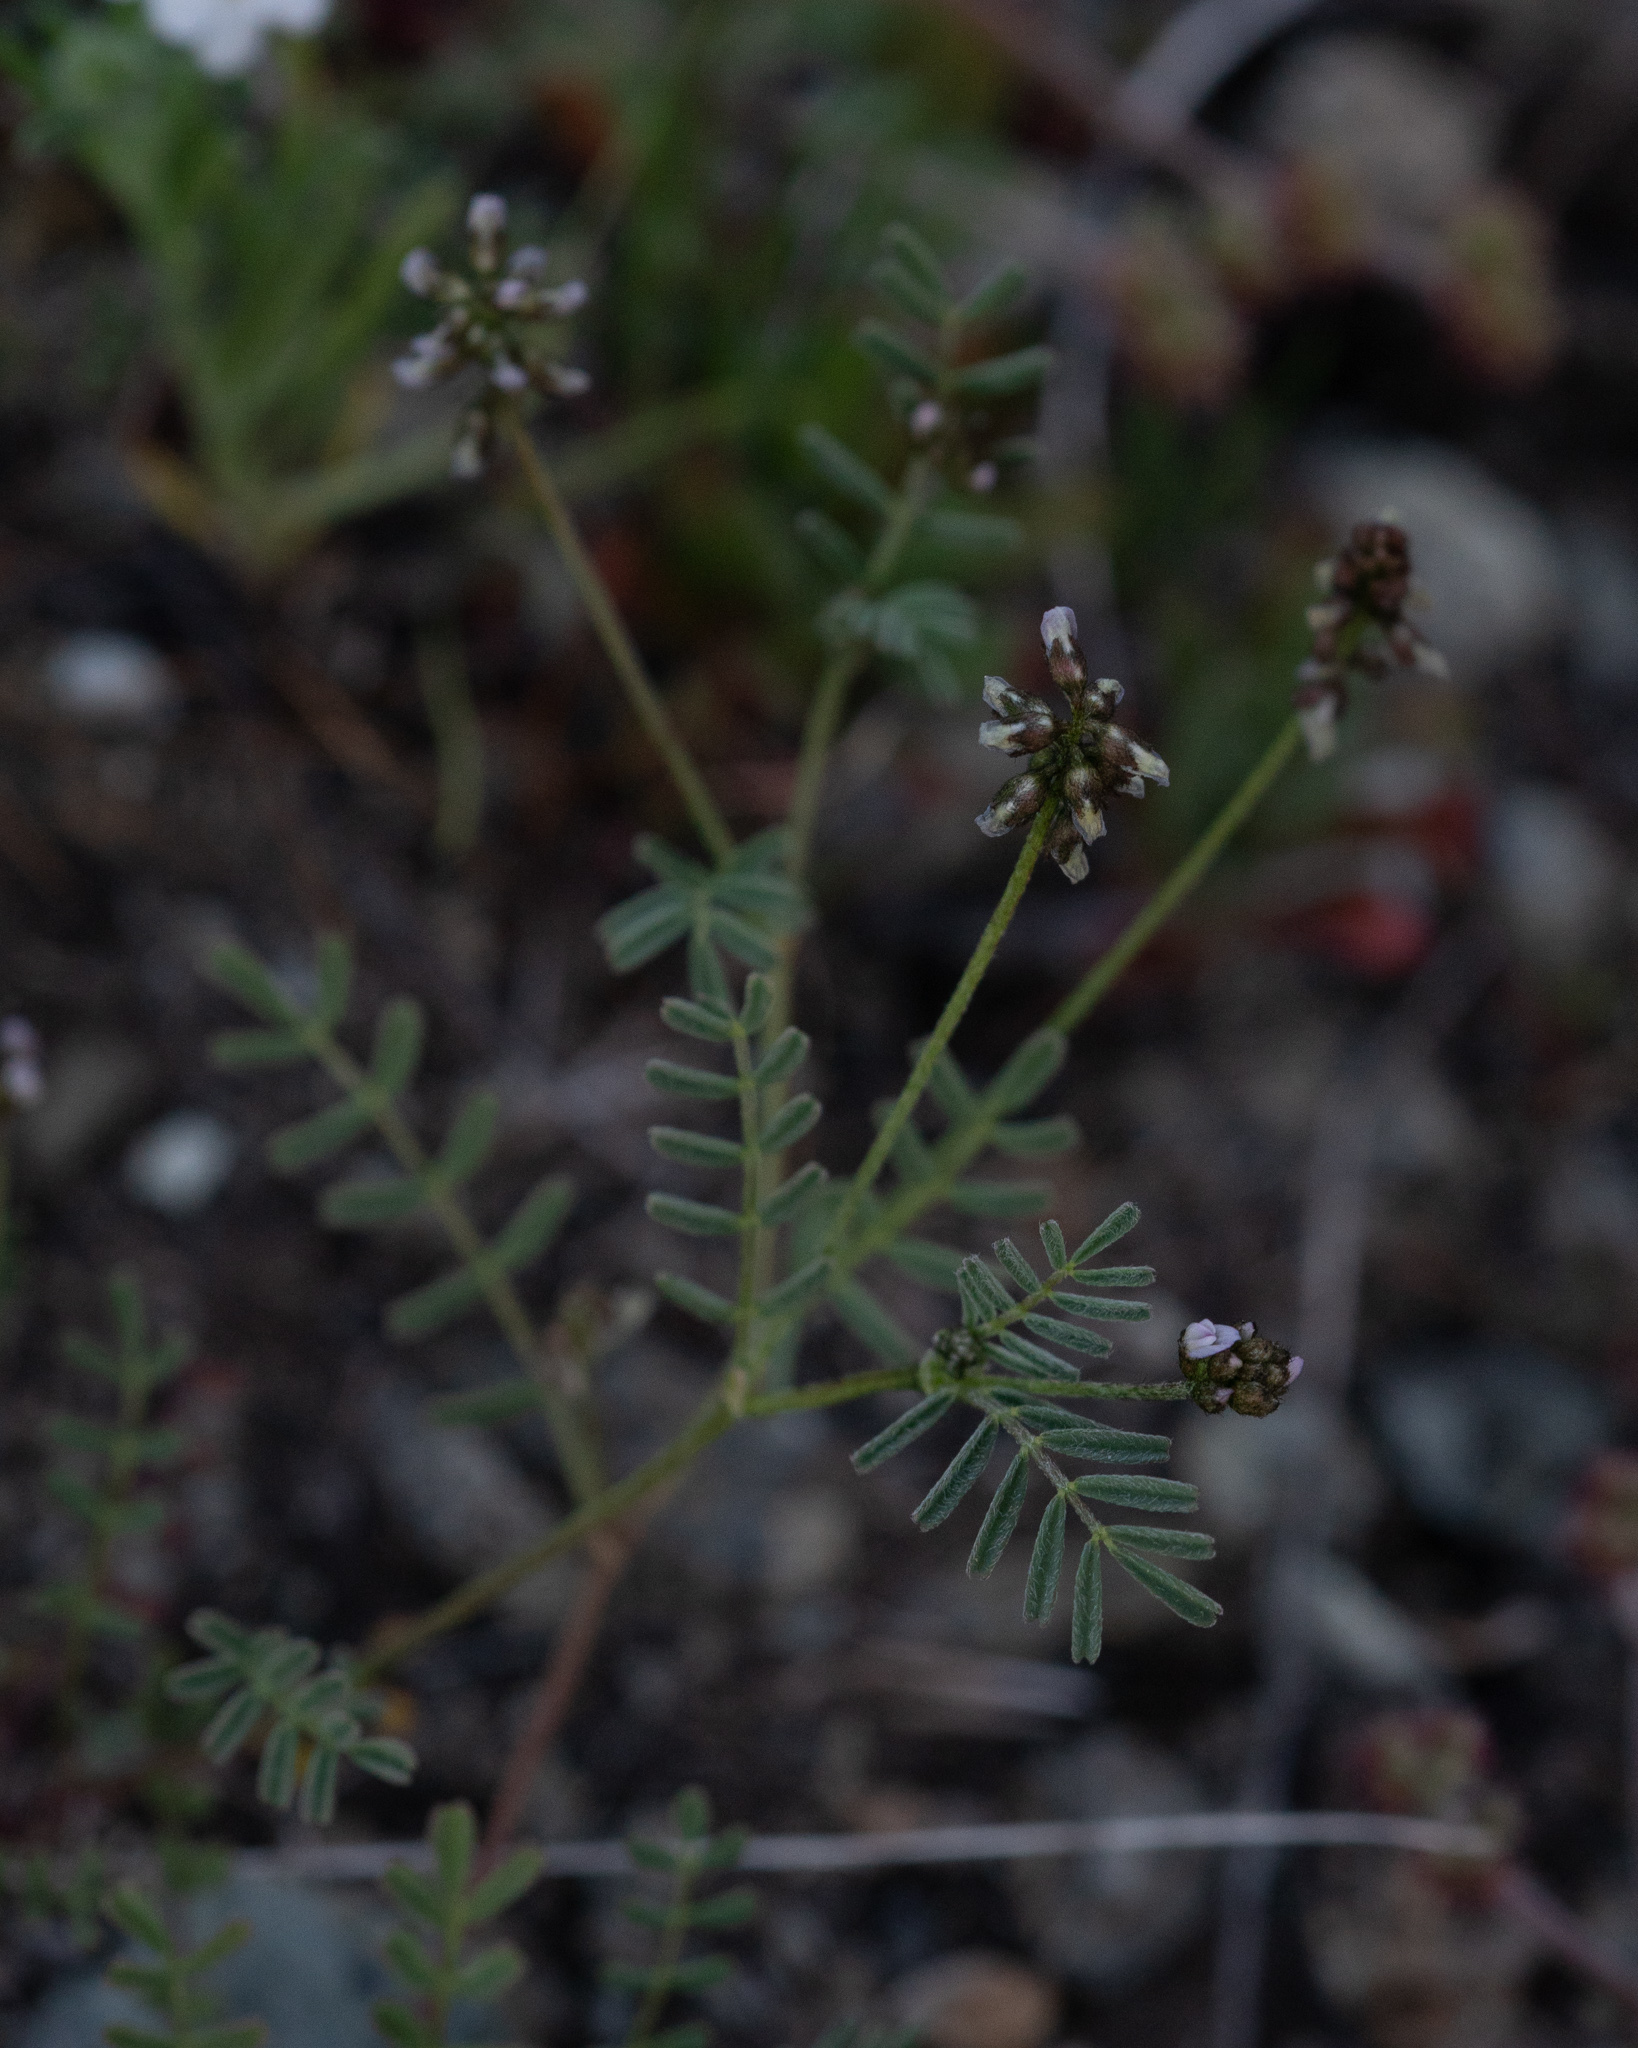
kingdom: Plantae
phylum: Tracheophyta
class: Magnoliopsida
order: Fabales
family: Fabaceae
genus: Astragalus
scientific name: Astragalus gambelianus
